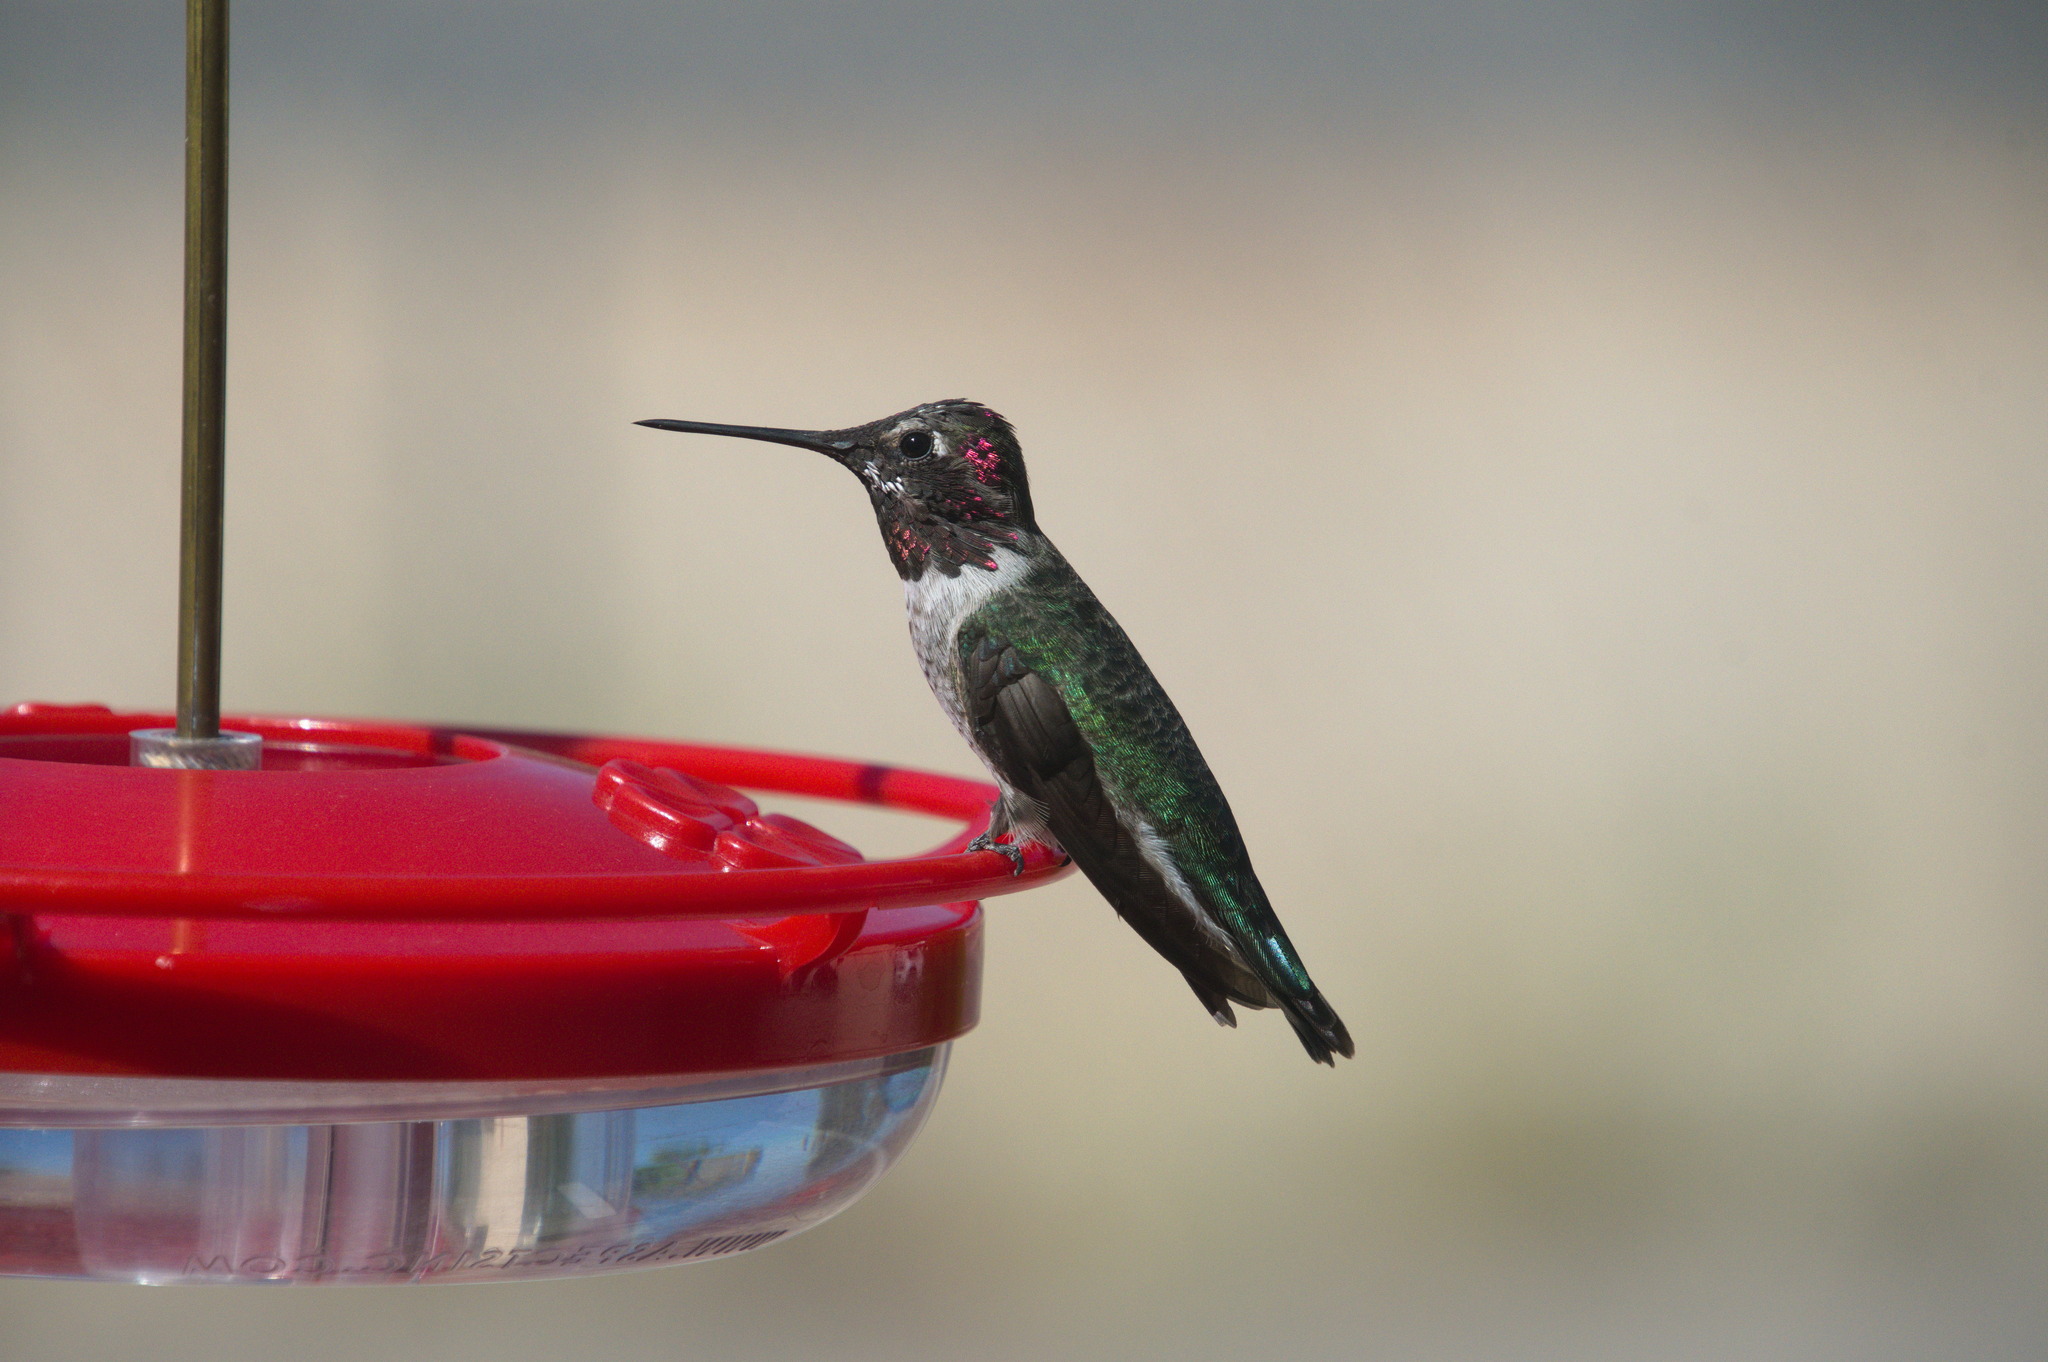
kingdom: Animalia
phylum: Chordata
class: Aves
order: Apodiformes
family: Trochilidae
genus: Calypte
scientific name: Calypte anna
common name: Anna's hummingbird
